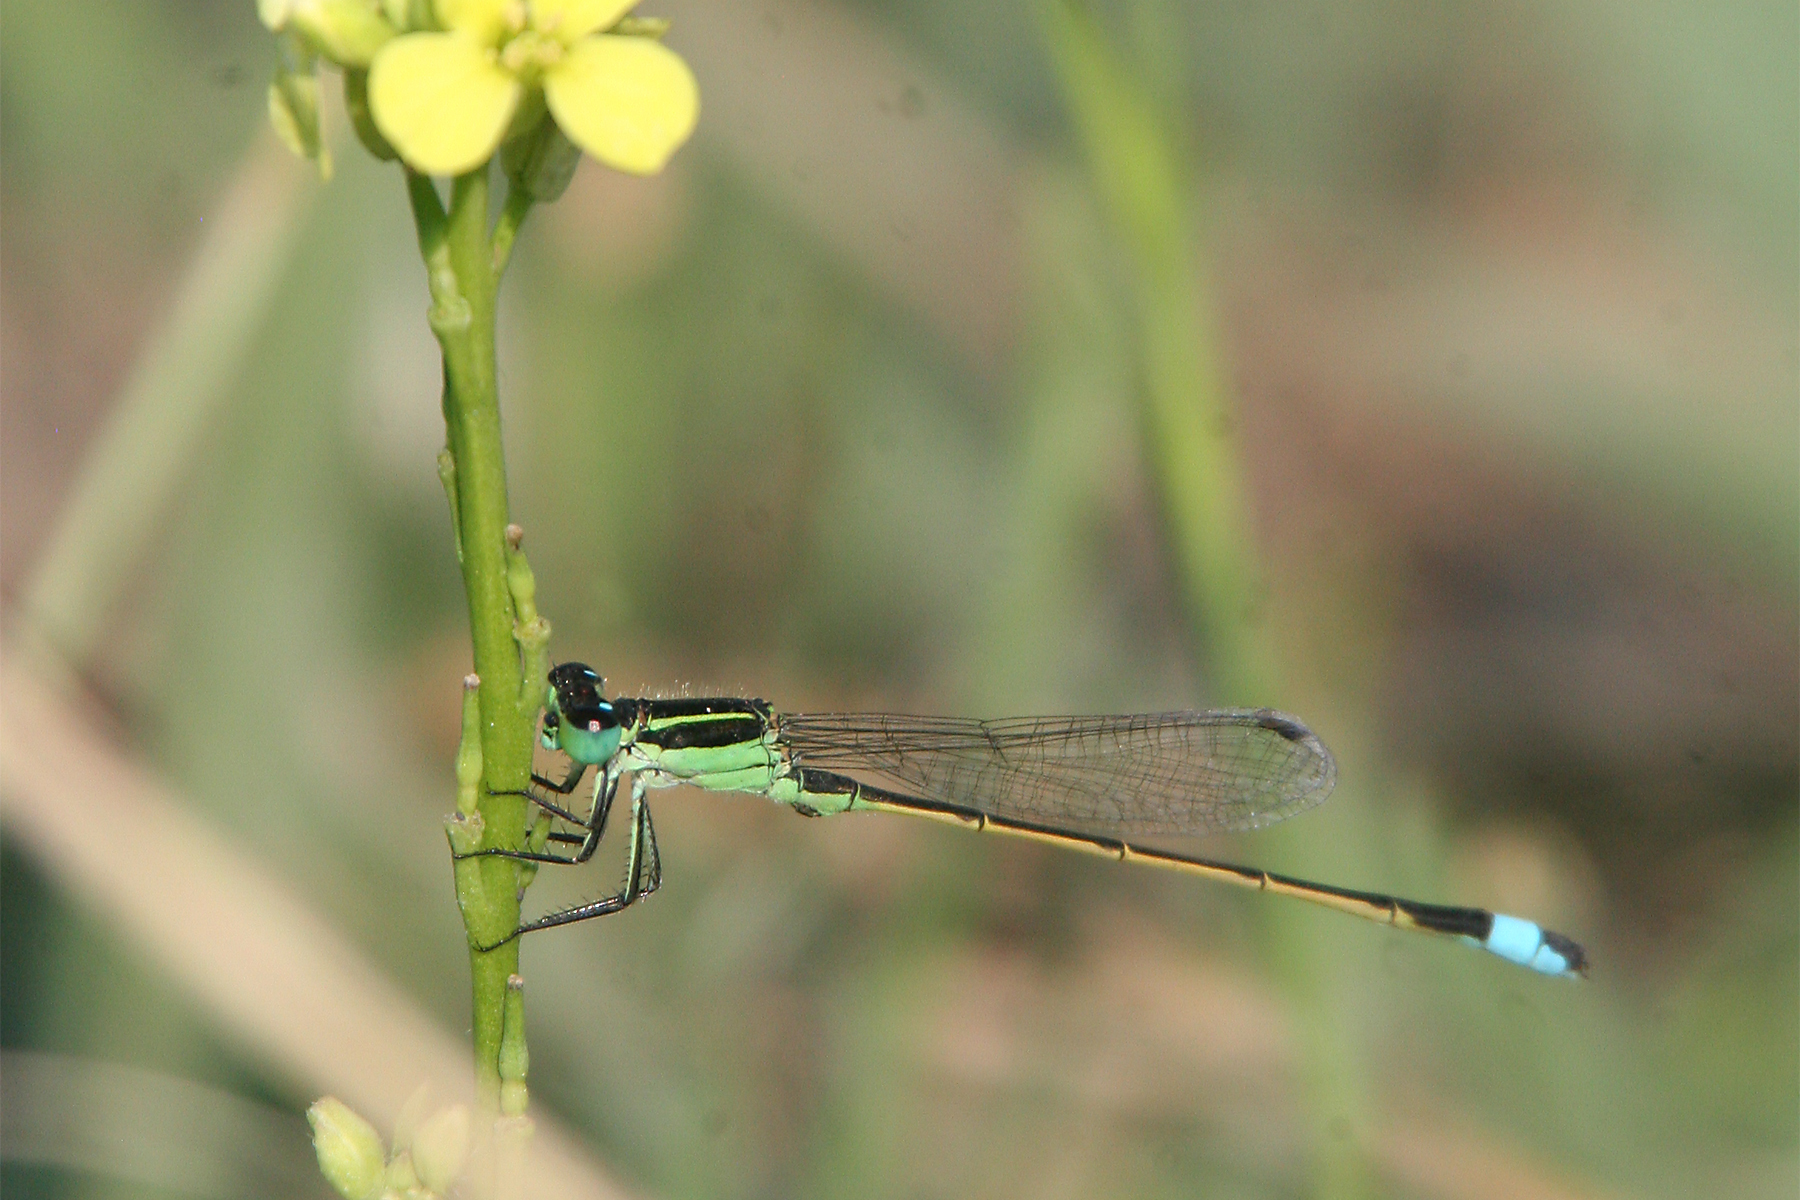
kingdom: Animalia
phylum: Arthropoda
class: Insecta
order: Odonata
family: Coenagrionidae
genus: Ischnura
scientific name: Ischnura ramburii
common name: Rambur's forktail
